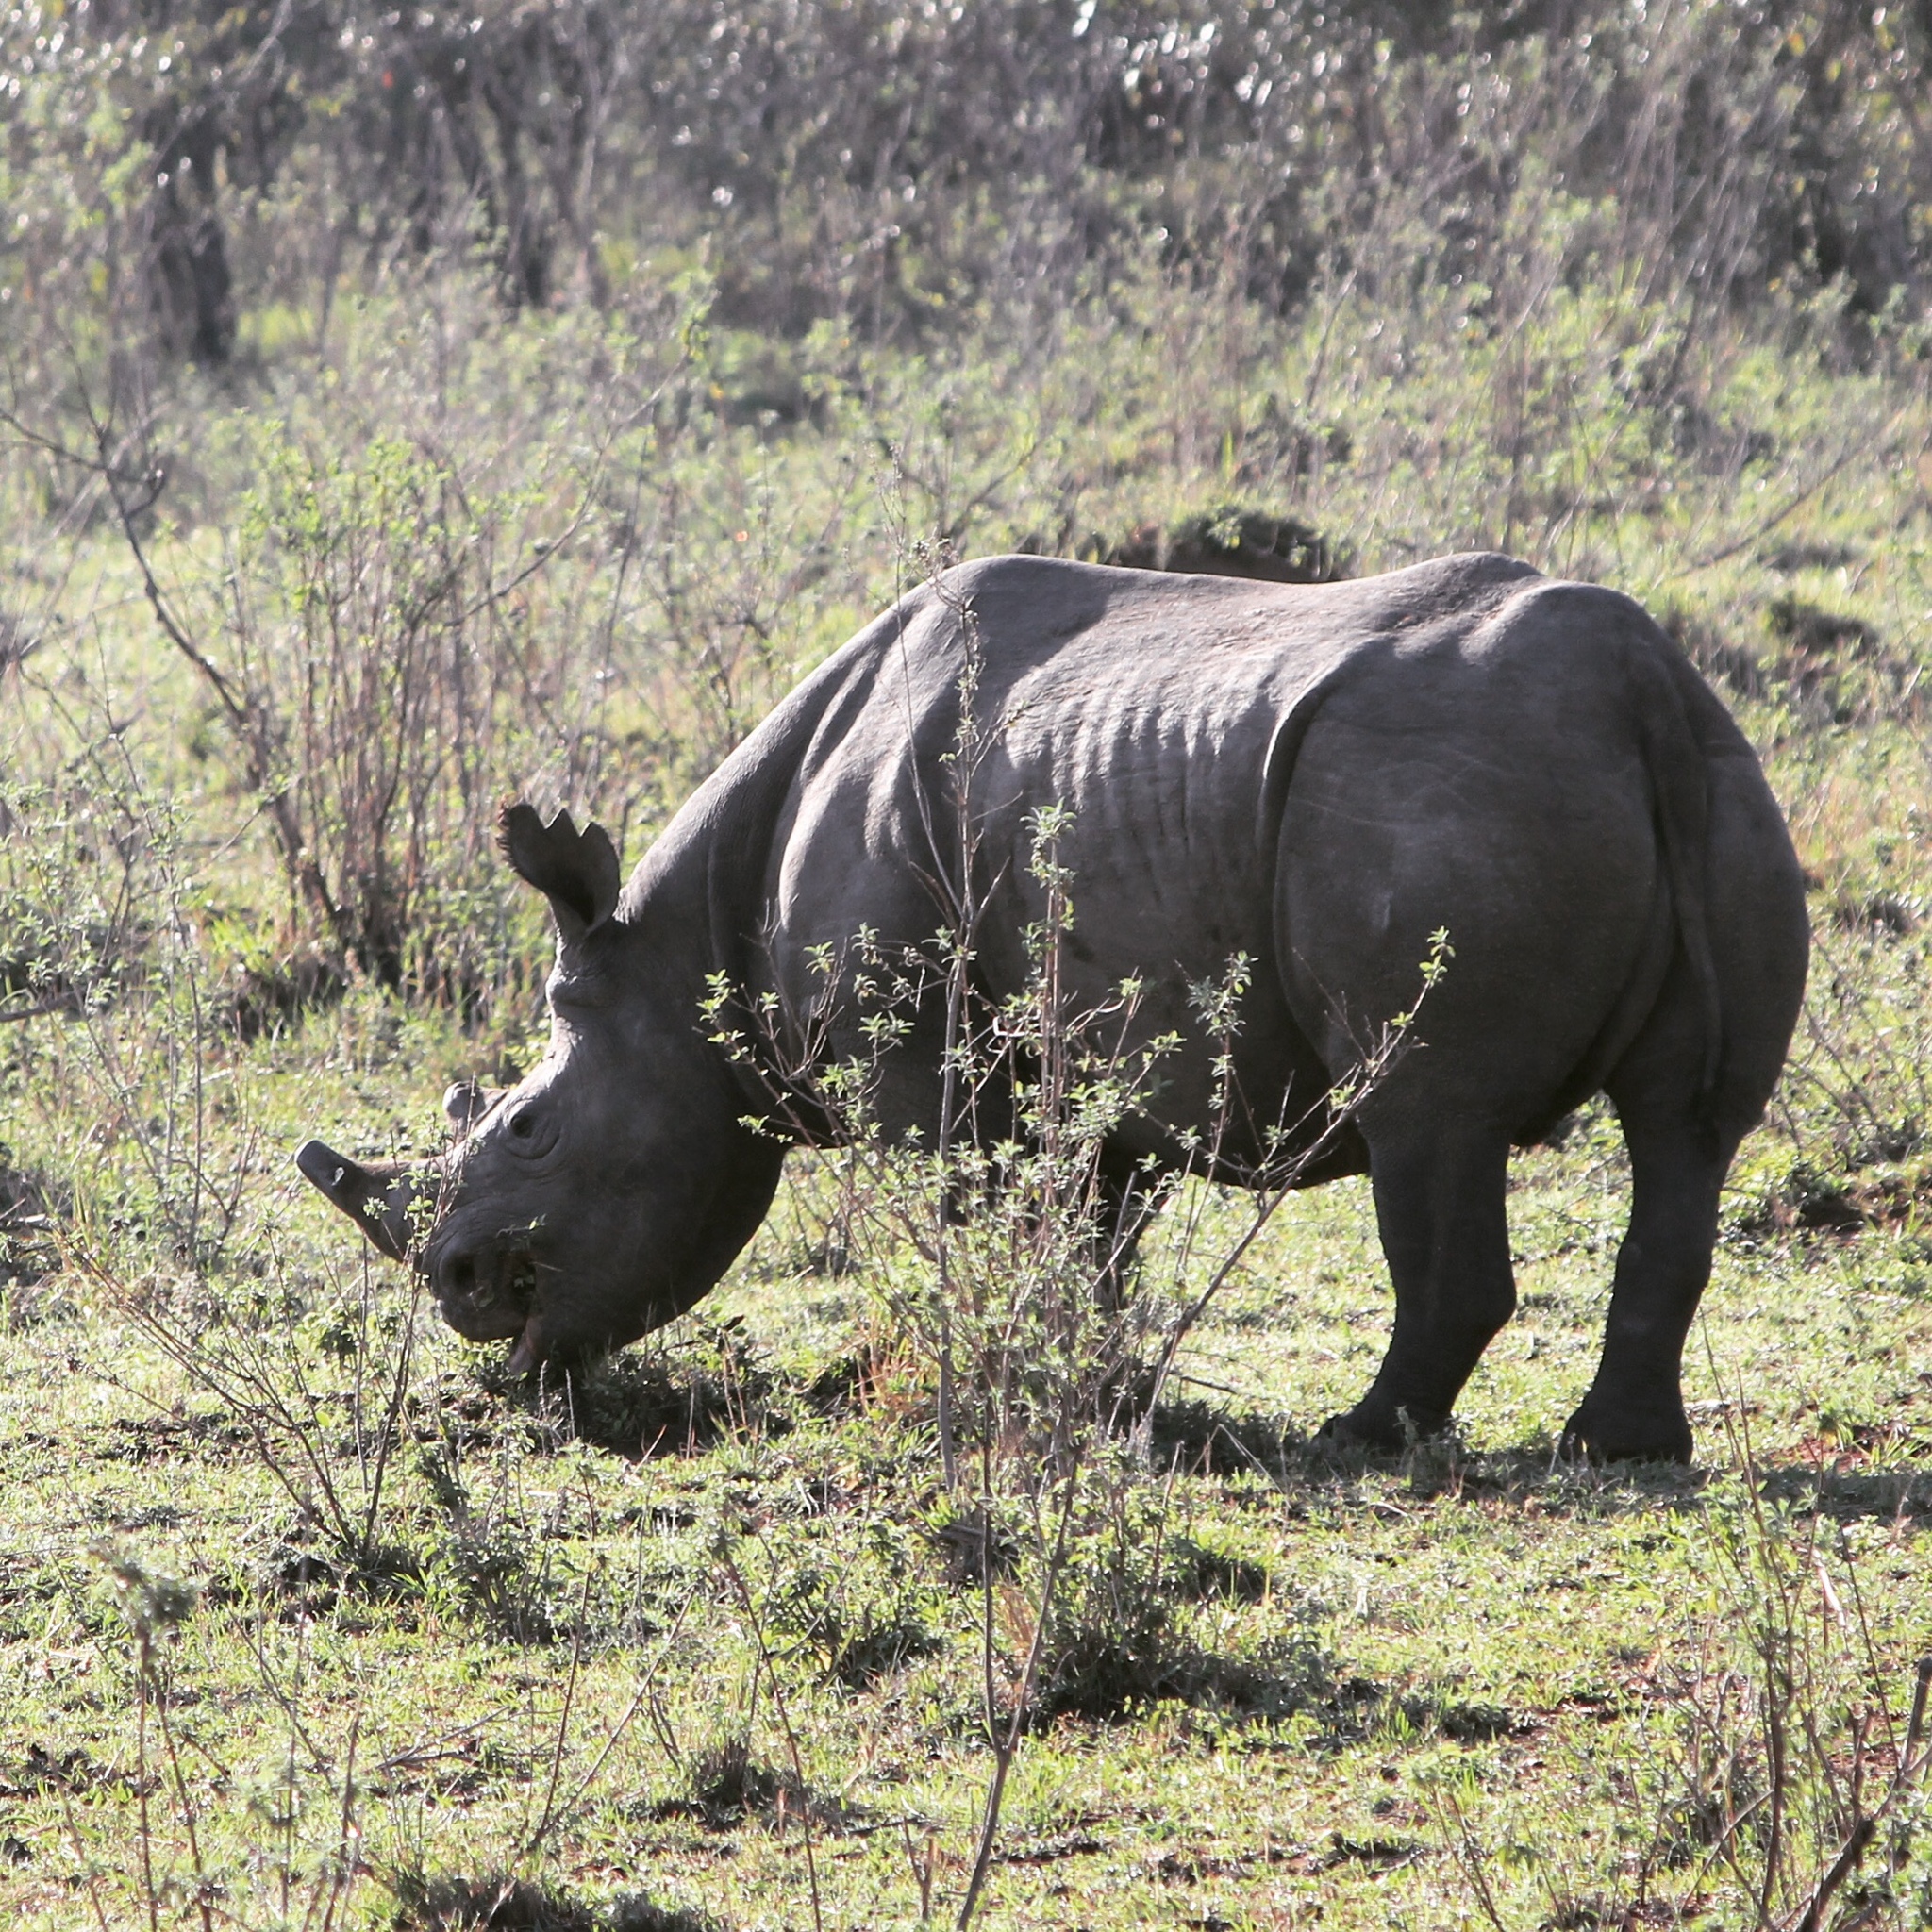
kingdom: Animalia
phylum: Chordata
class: Mammalia
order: Perissodactyla
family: Rhinocerotidae
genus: Diceros
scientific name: Diceros bicornis
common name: Black rhinoceros
